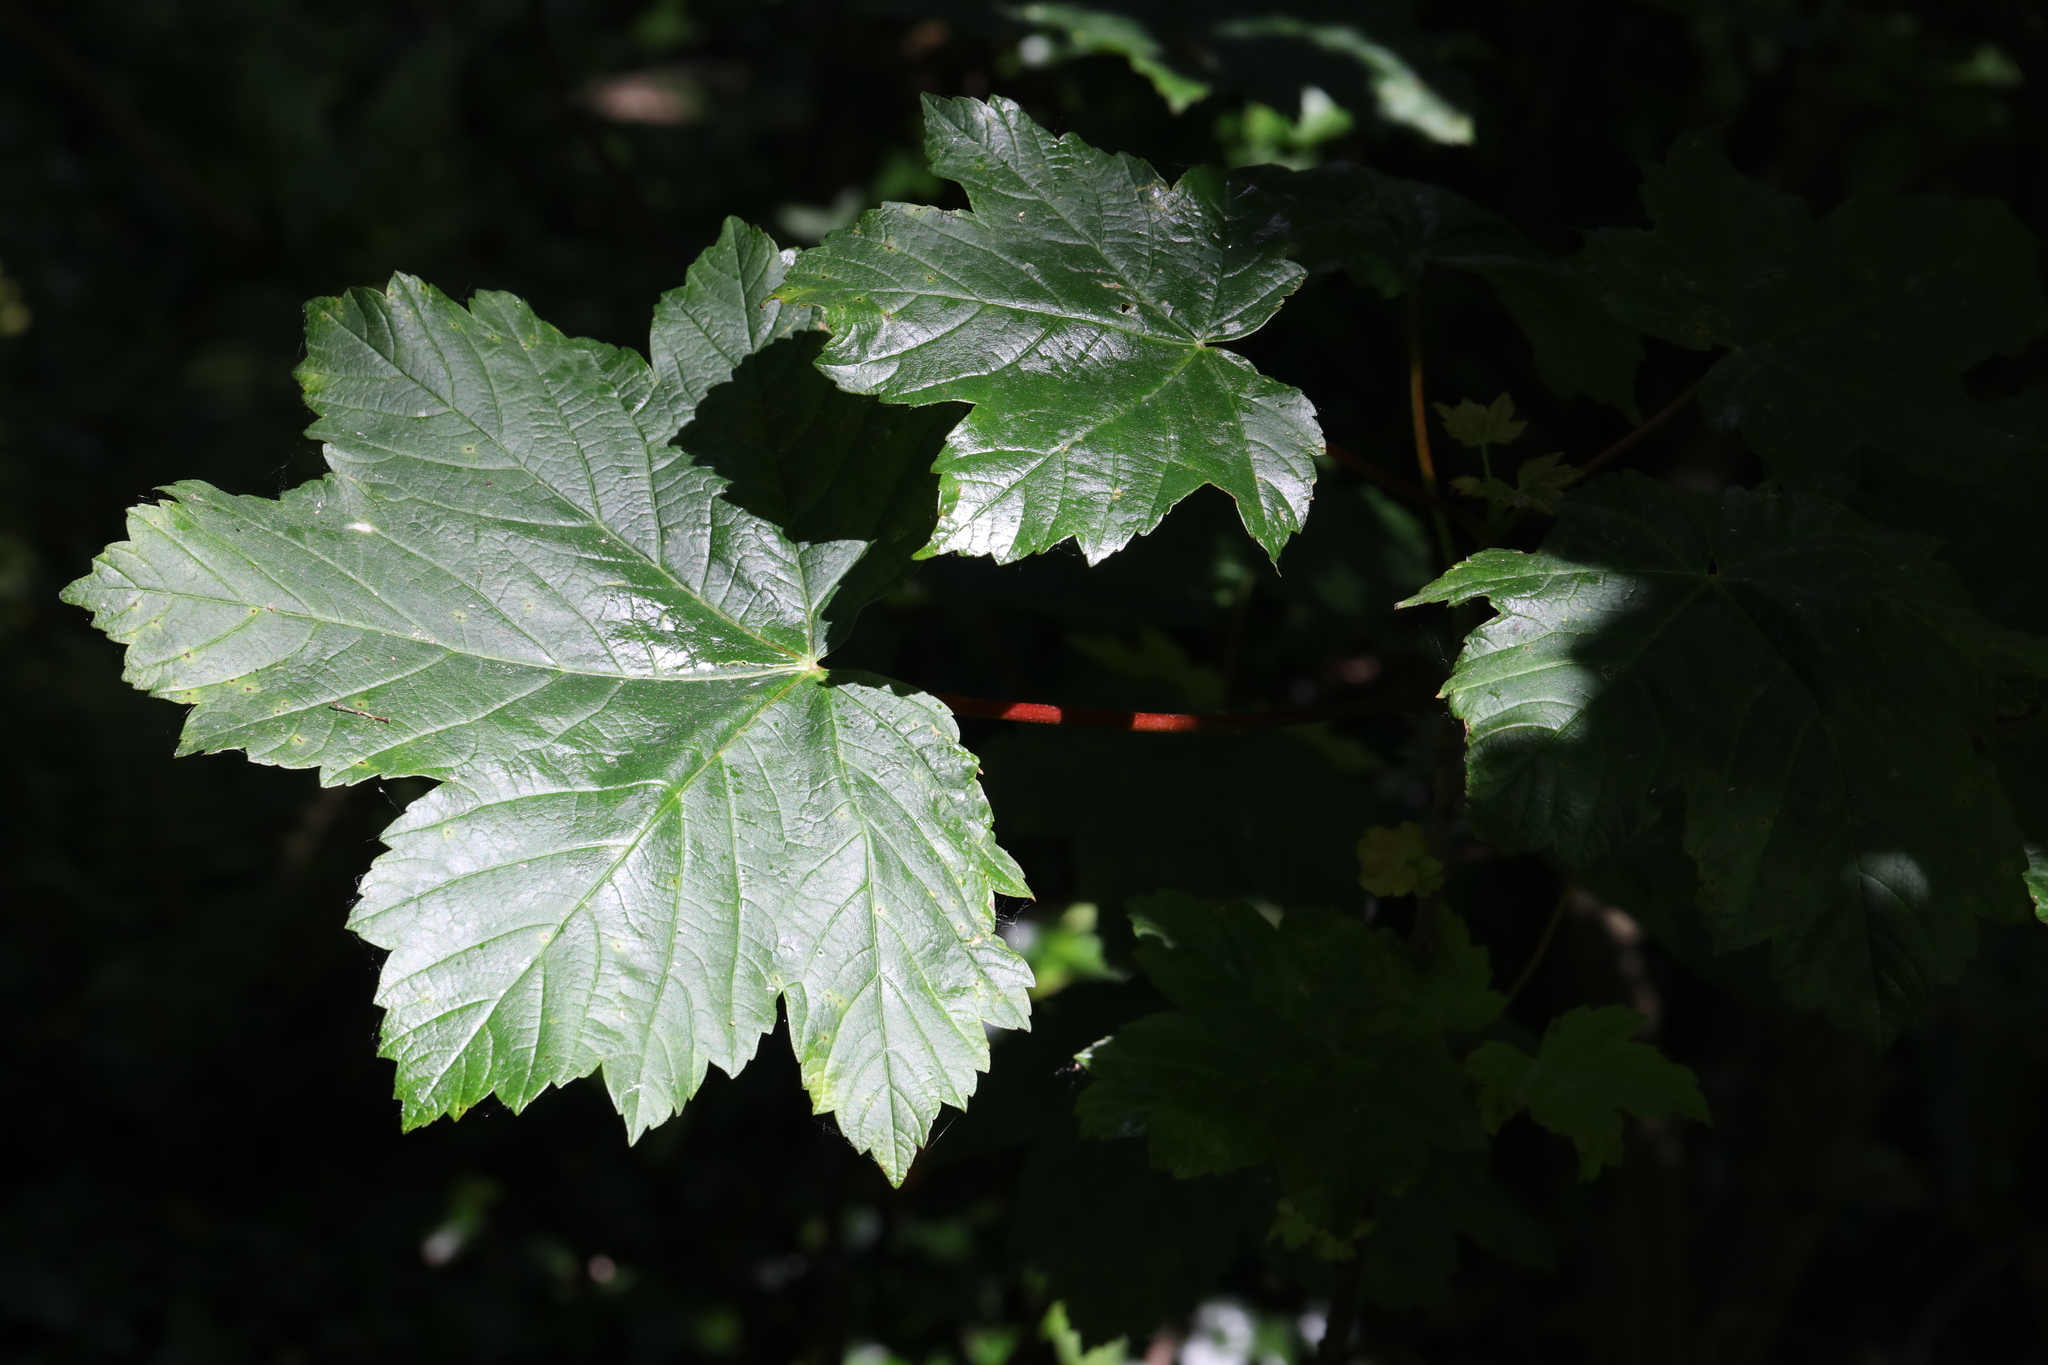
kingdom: Plantae
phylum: Tracheophyta
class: Magnoliopsida
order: Sapindales
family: Sapindaceae
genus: Acer
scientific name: Acer pseudoplatanus
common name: Sycamore
